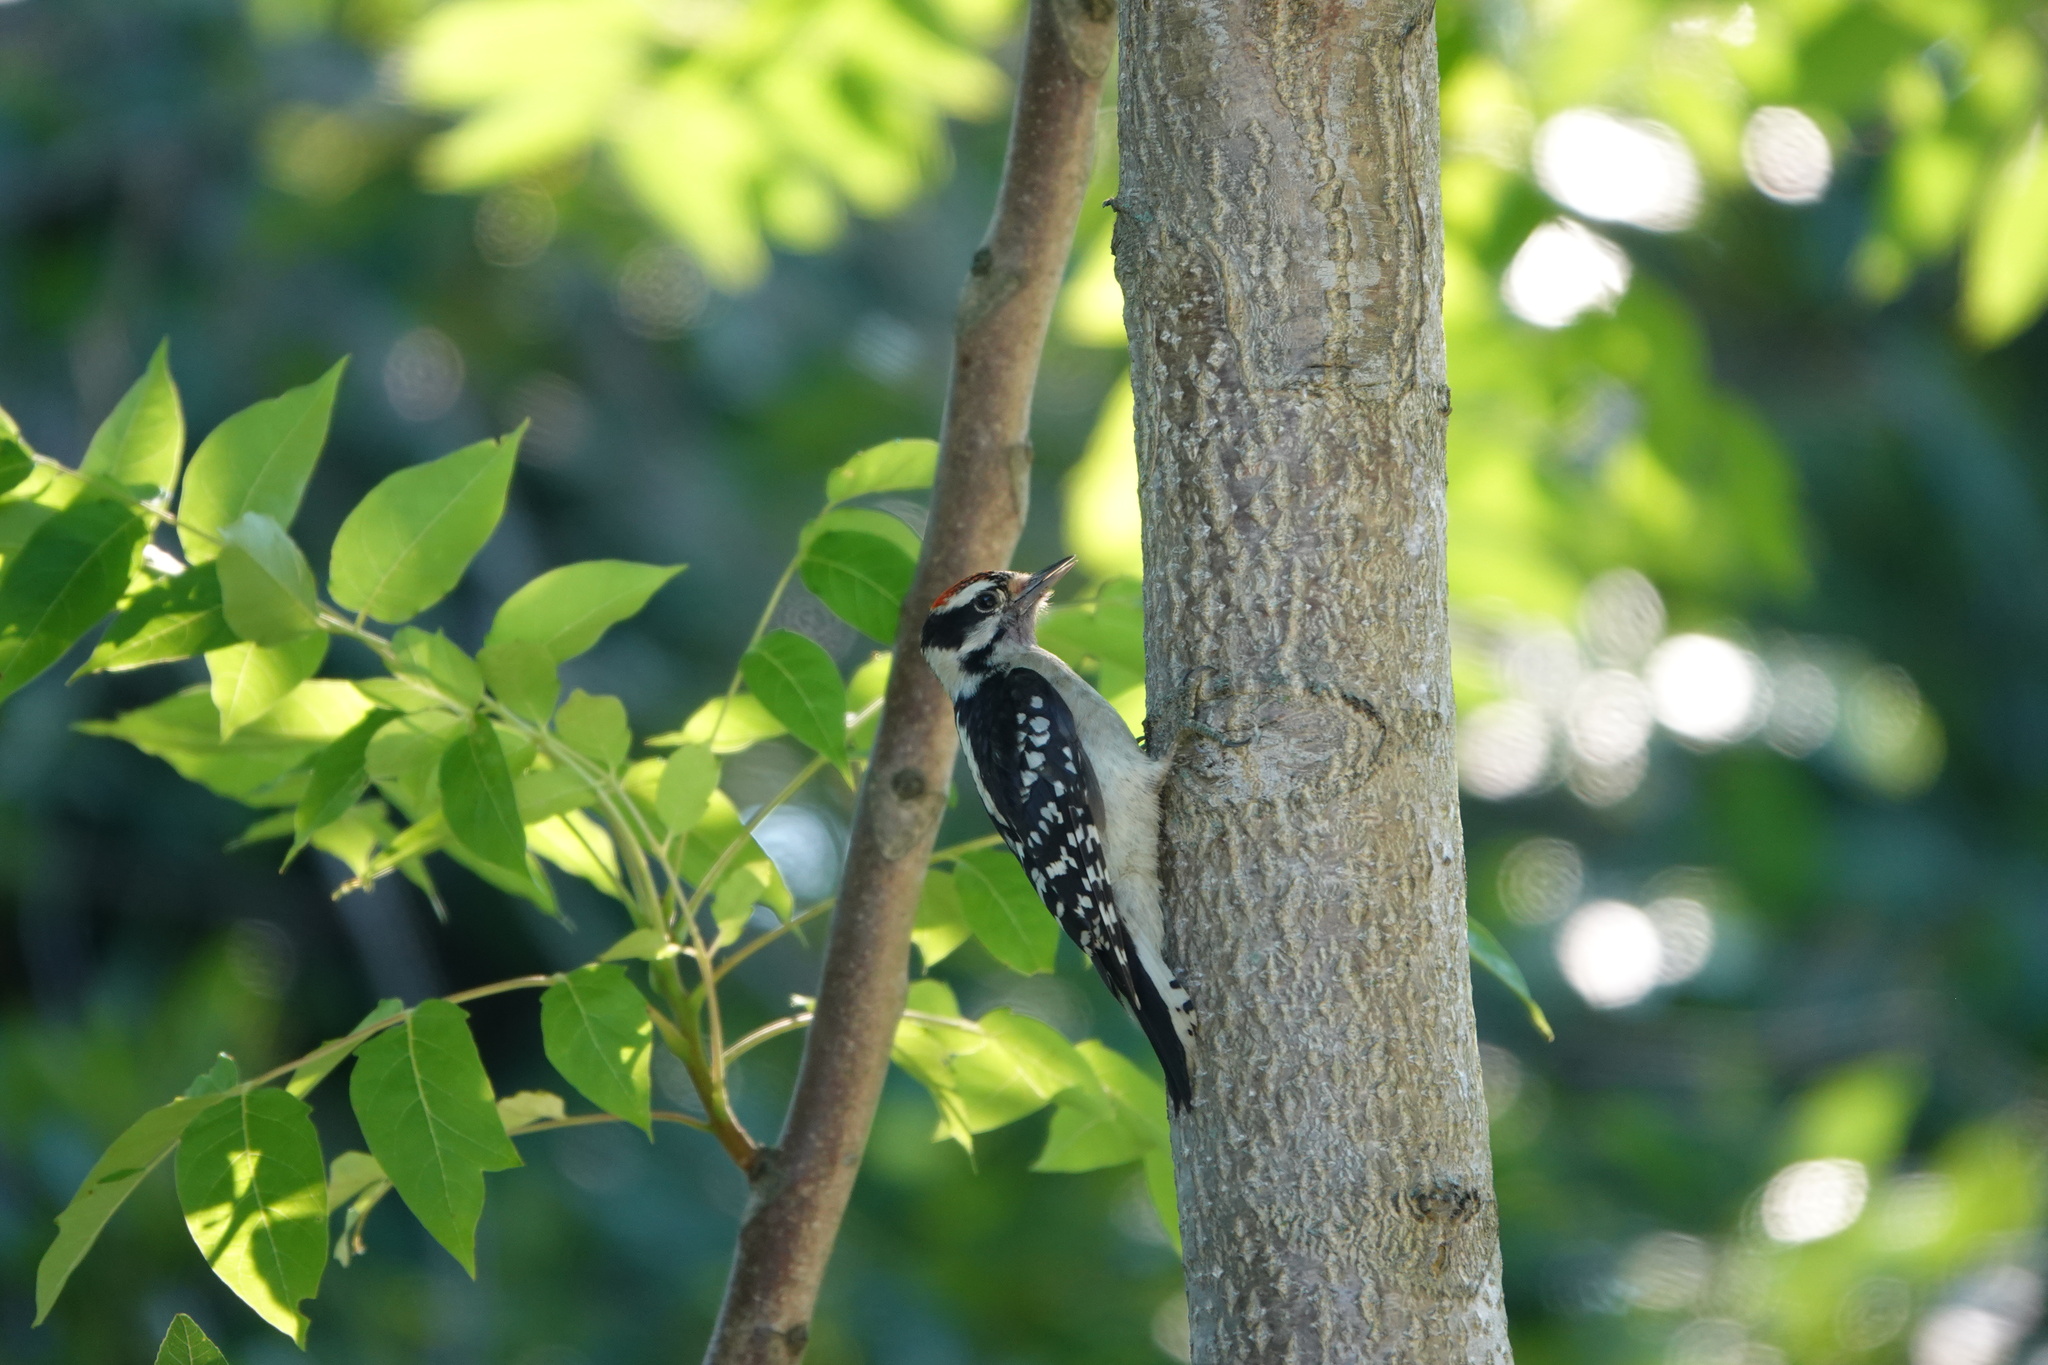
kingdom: Animalia
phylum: Chordata
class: Aves
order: Piciformes
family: Picidae
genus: Dryobates
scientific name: Dryobates pubescens
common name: Downy woodpecker
